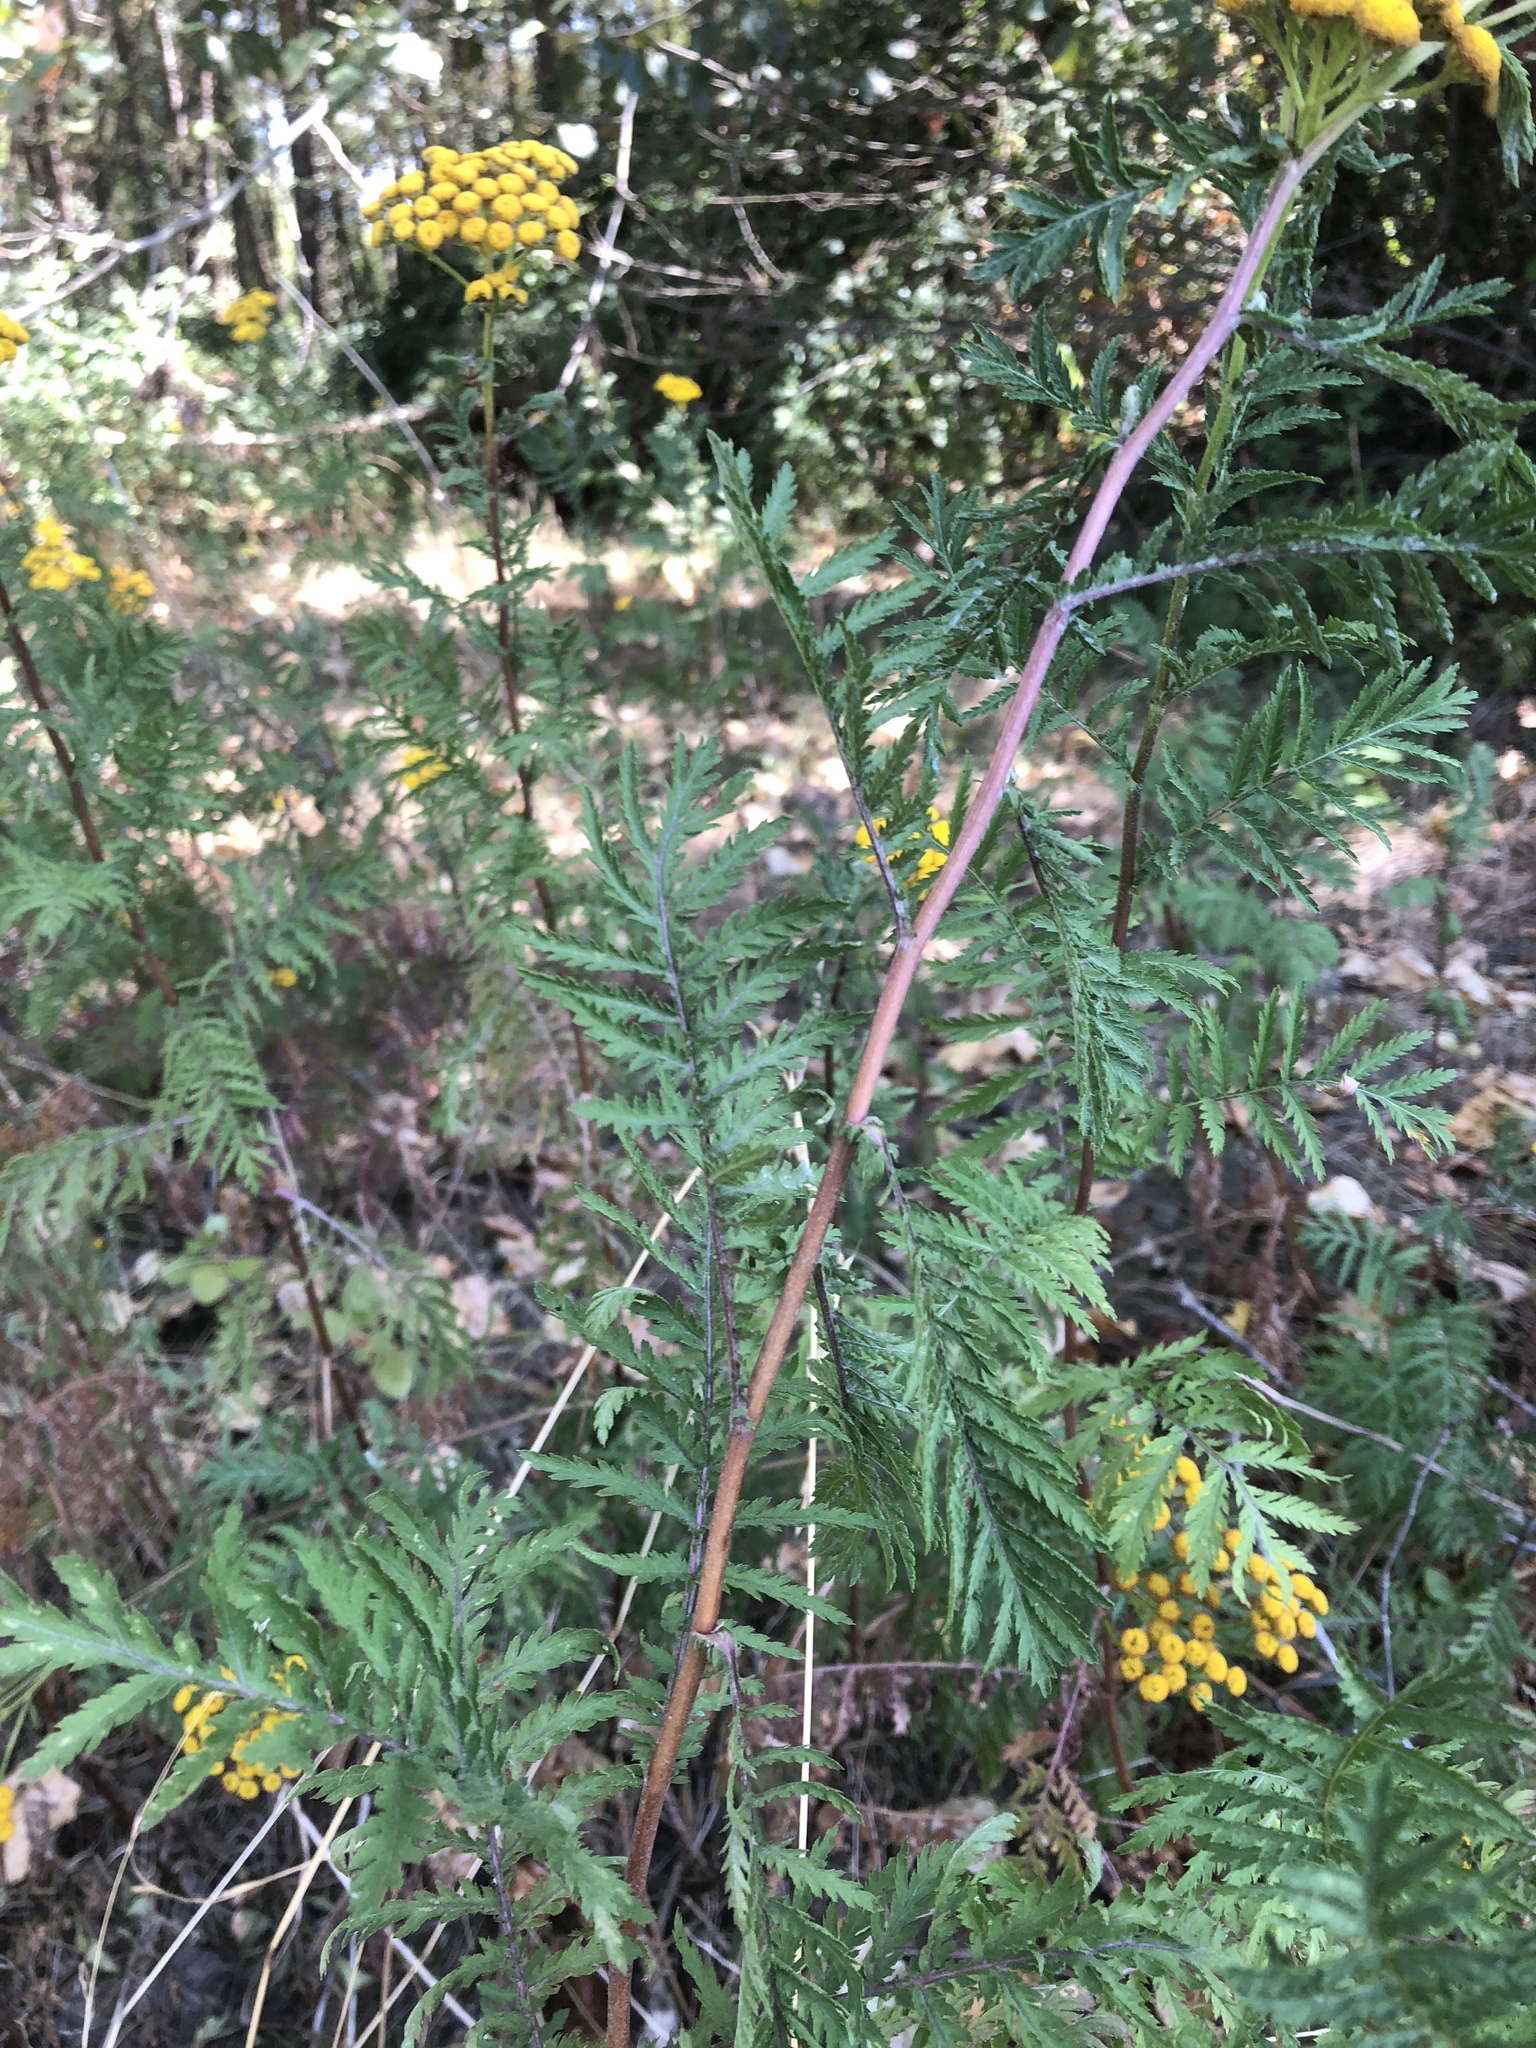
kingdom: Plantae
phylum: Tracheophyta
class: Magnoliopsida
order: Asterales
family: Asteraceae
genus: Tanacetum
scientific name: Tanacetum vulgare
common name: Common tansy
